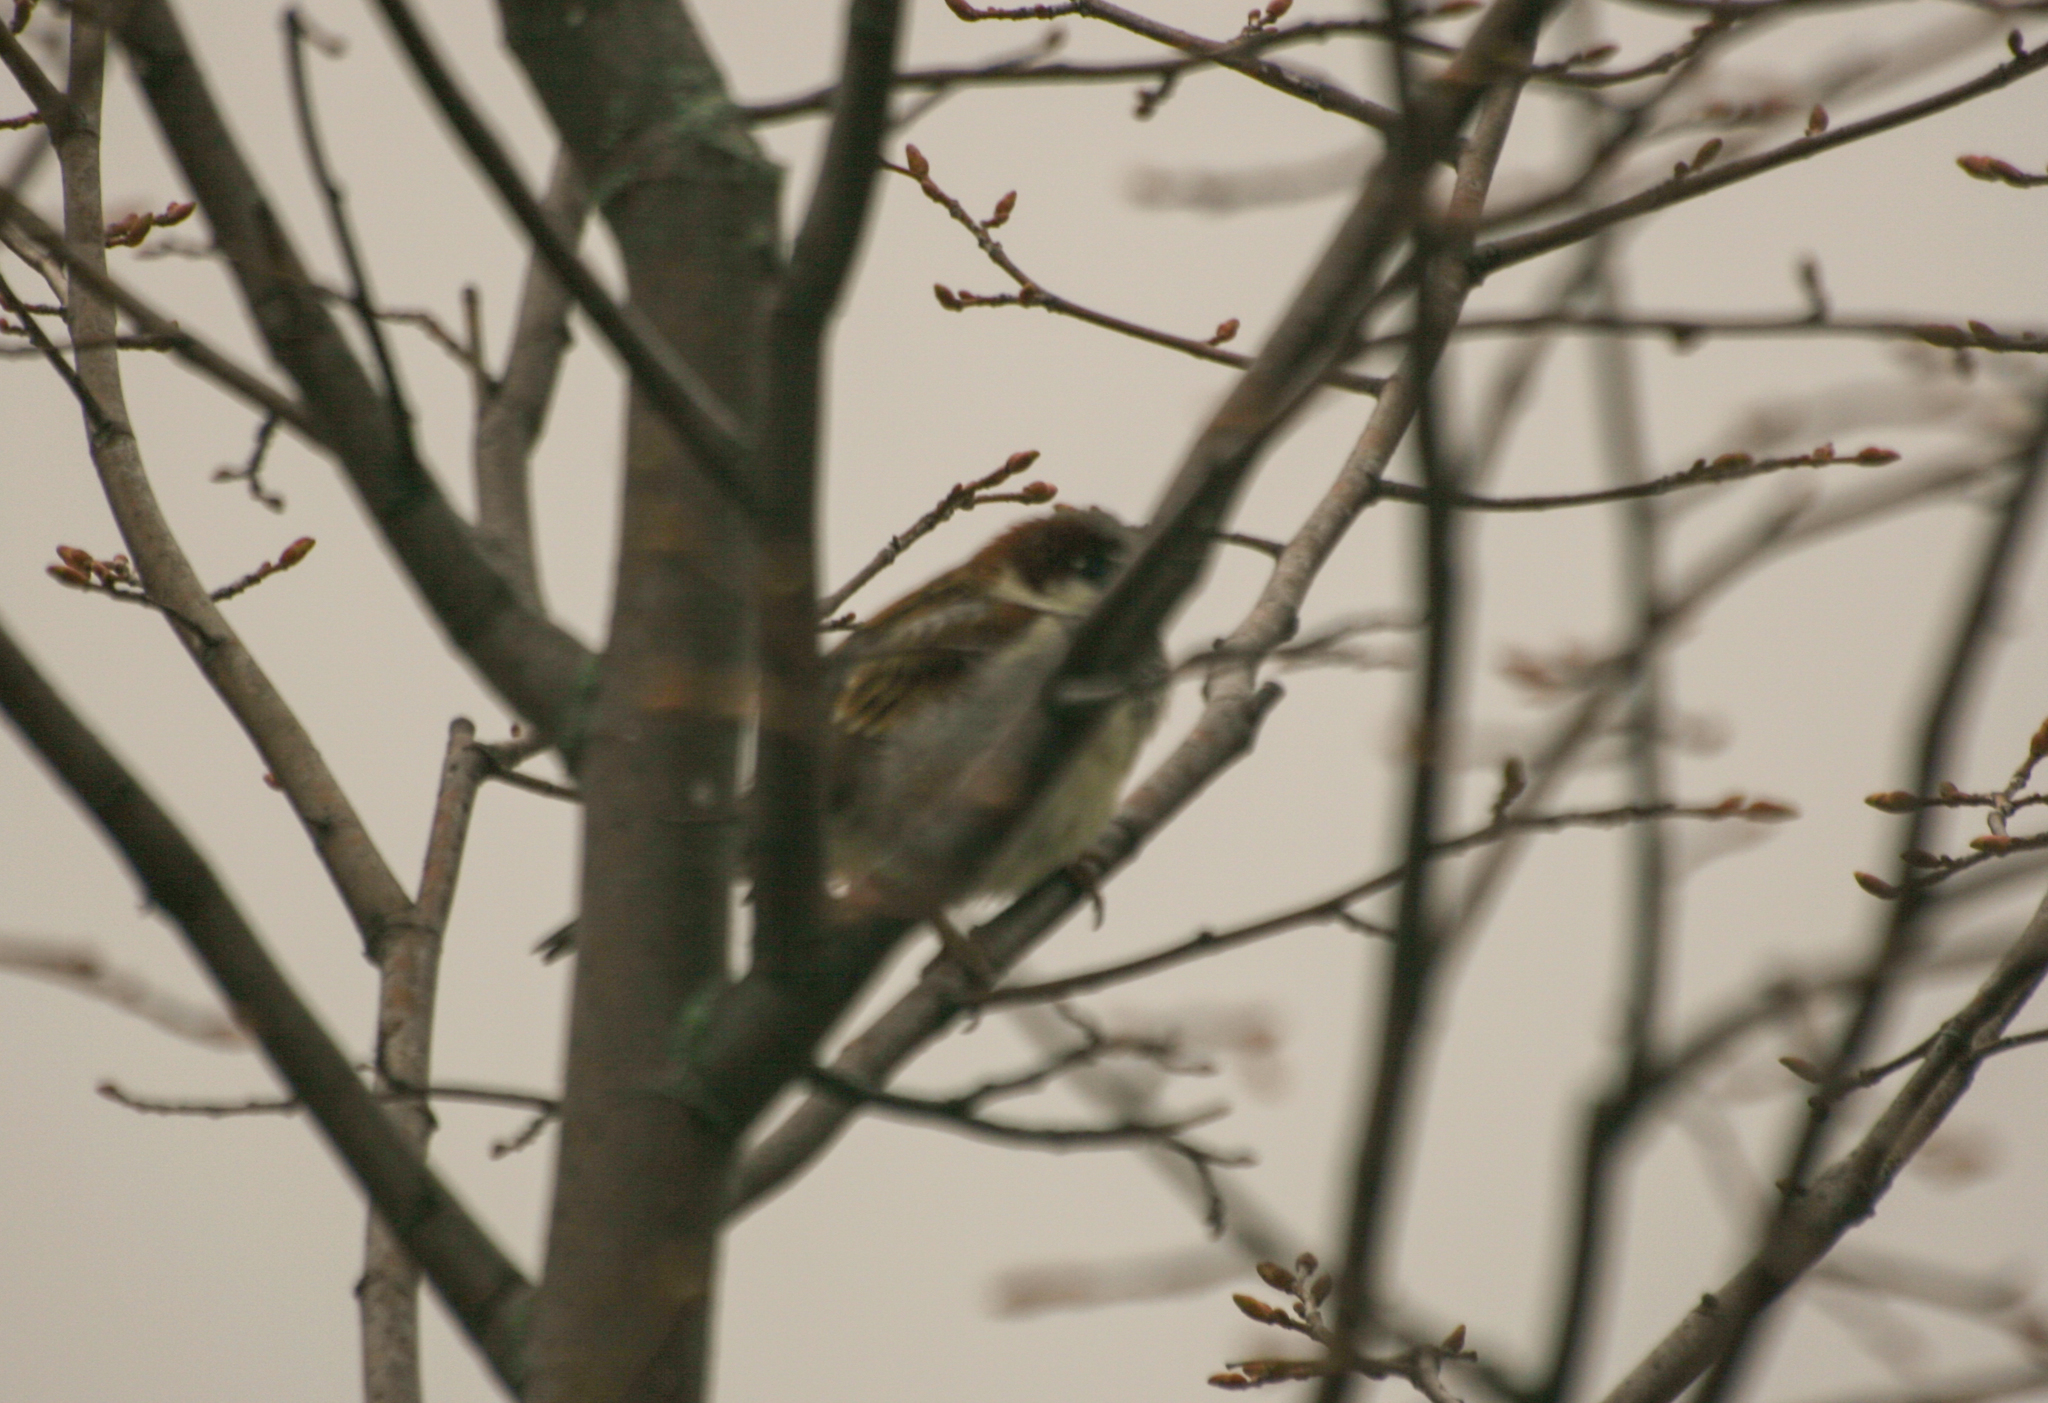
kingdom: Animalia
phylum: Chordata
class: Aves
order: Passeriformes
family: Passeridae
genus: Passer
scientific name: Passer domesticus
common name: House sparrow
